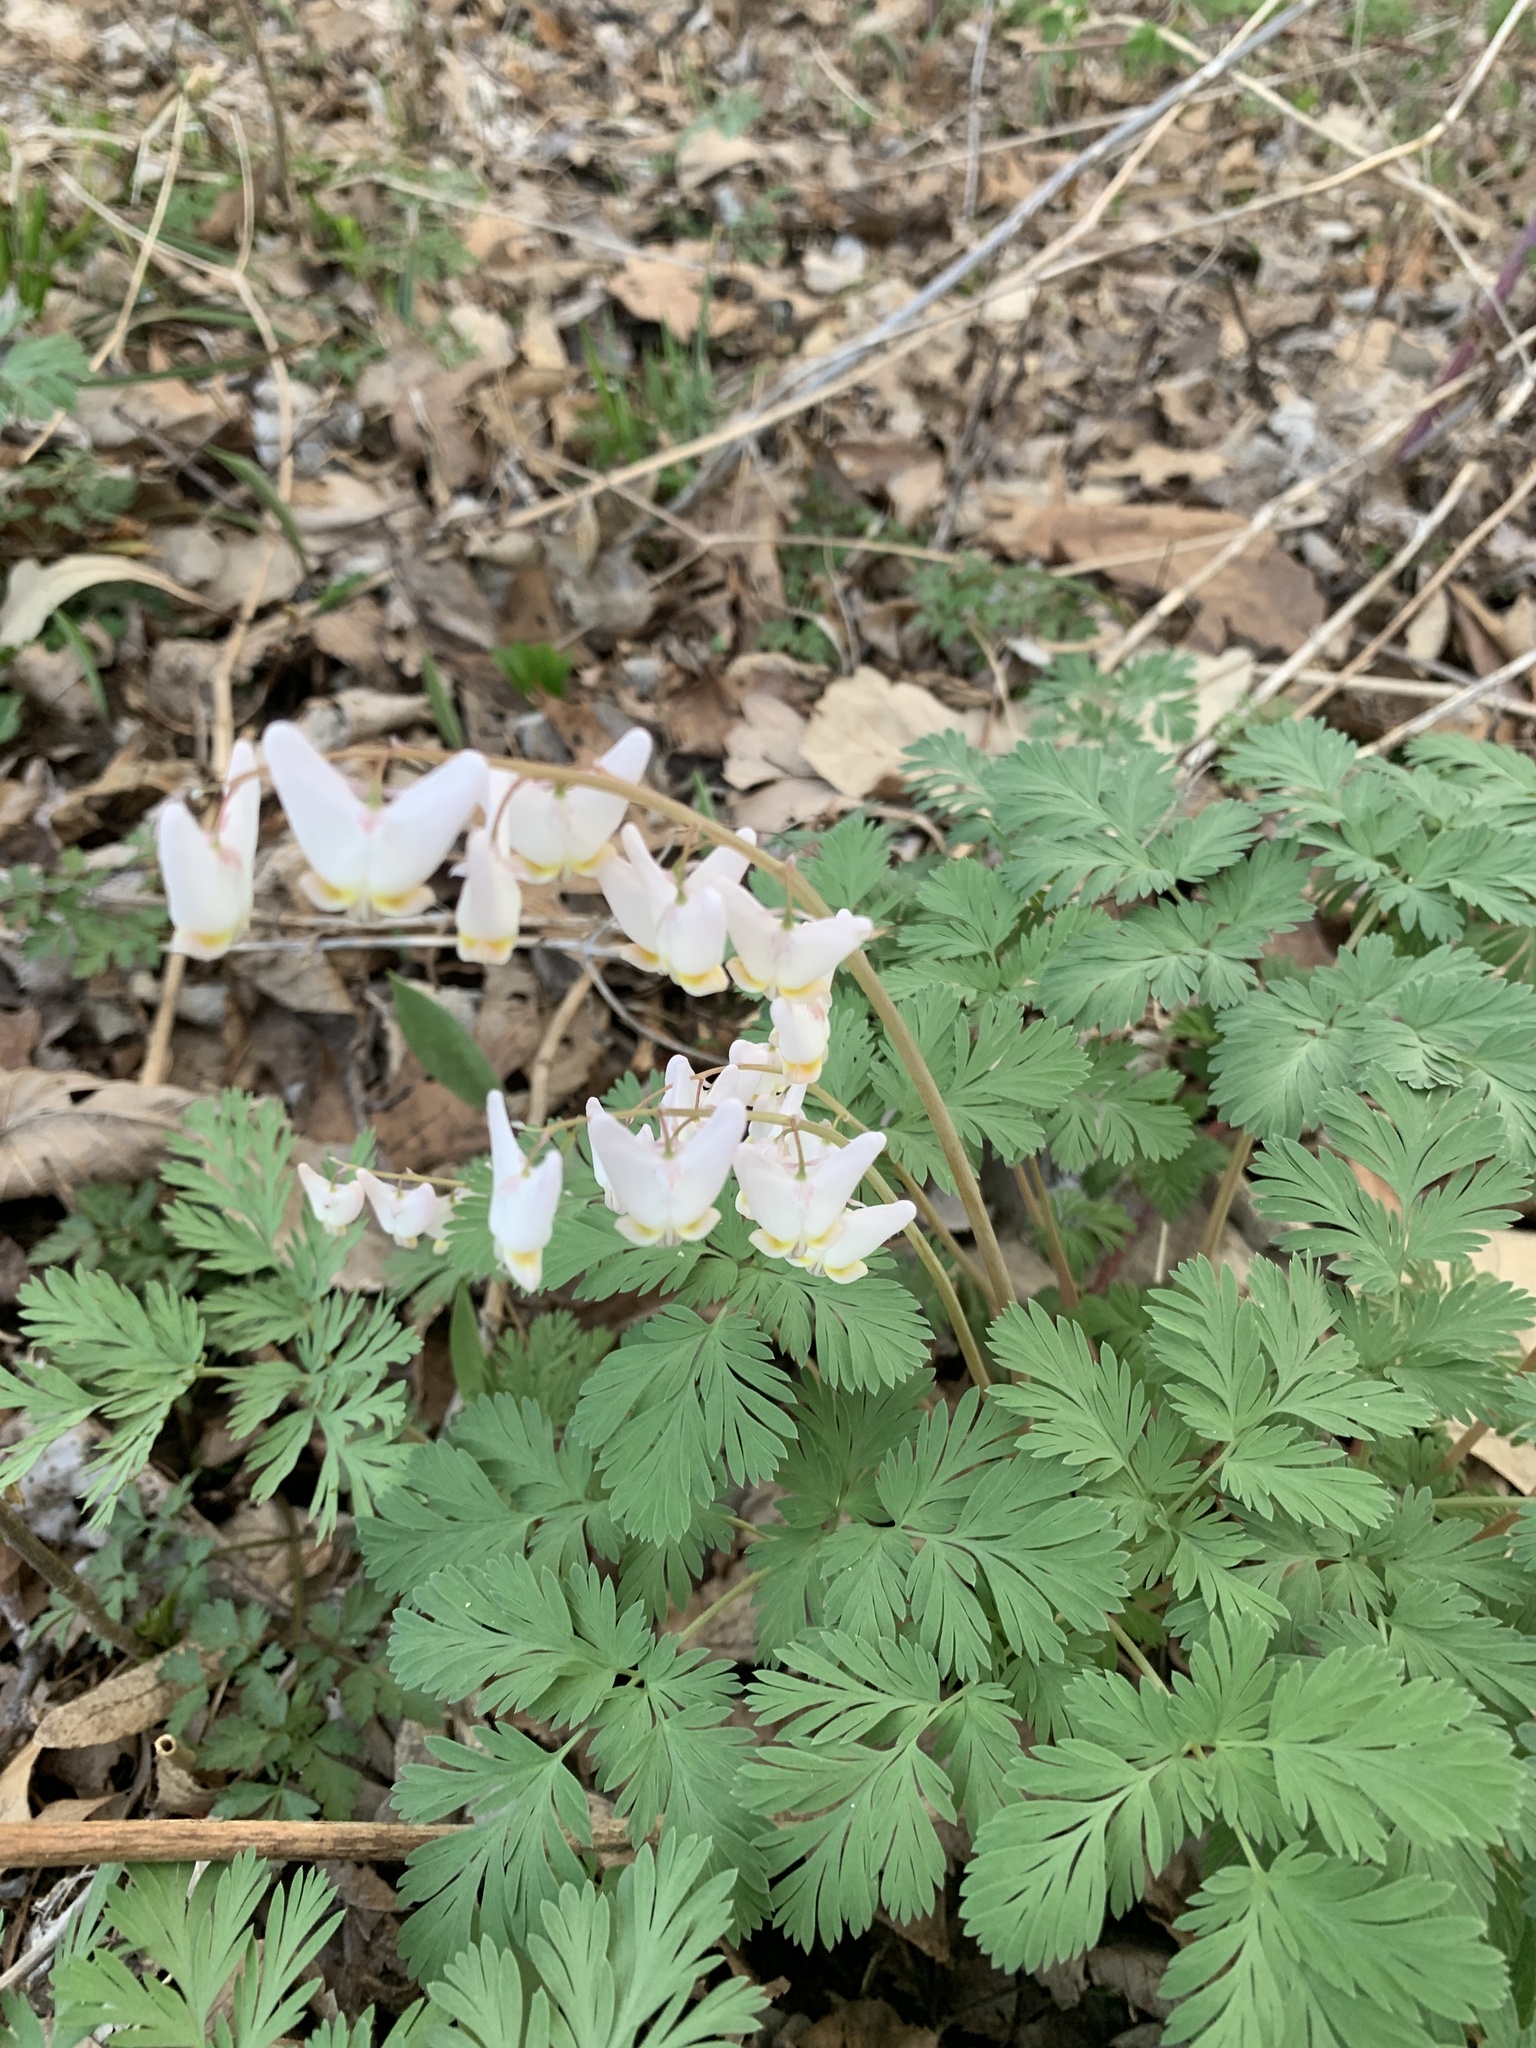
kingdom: Plantae
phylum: Tracheophyta
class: Magnoliopsida
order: Ranunculales
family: Papaveraceae
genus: Dicentra
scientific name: Dicentra cucullaria
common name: Dutchman's breeches
